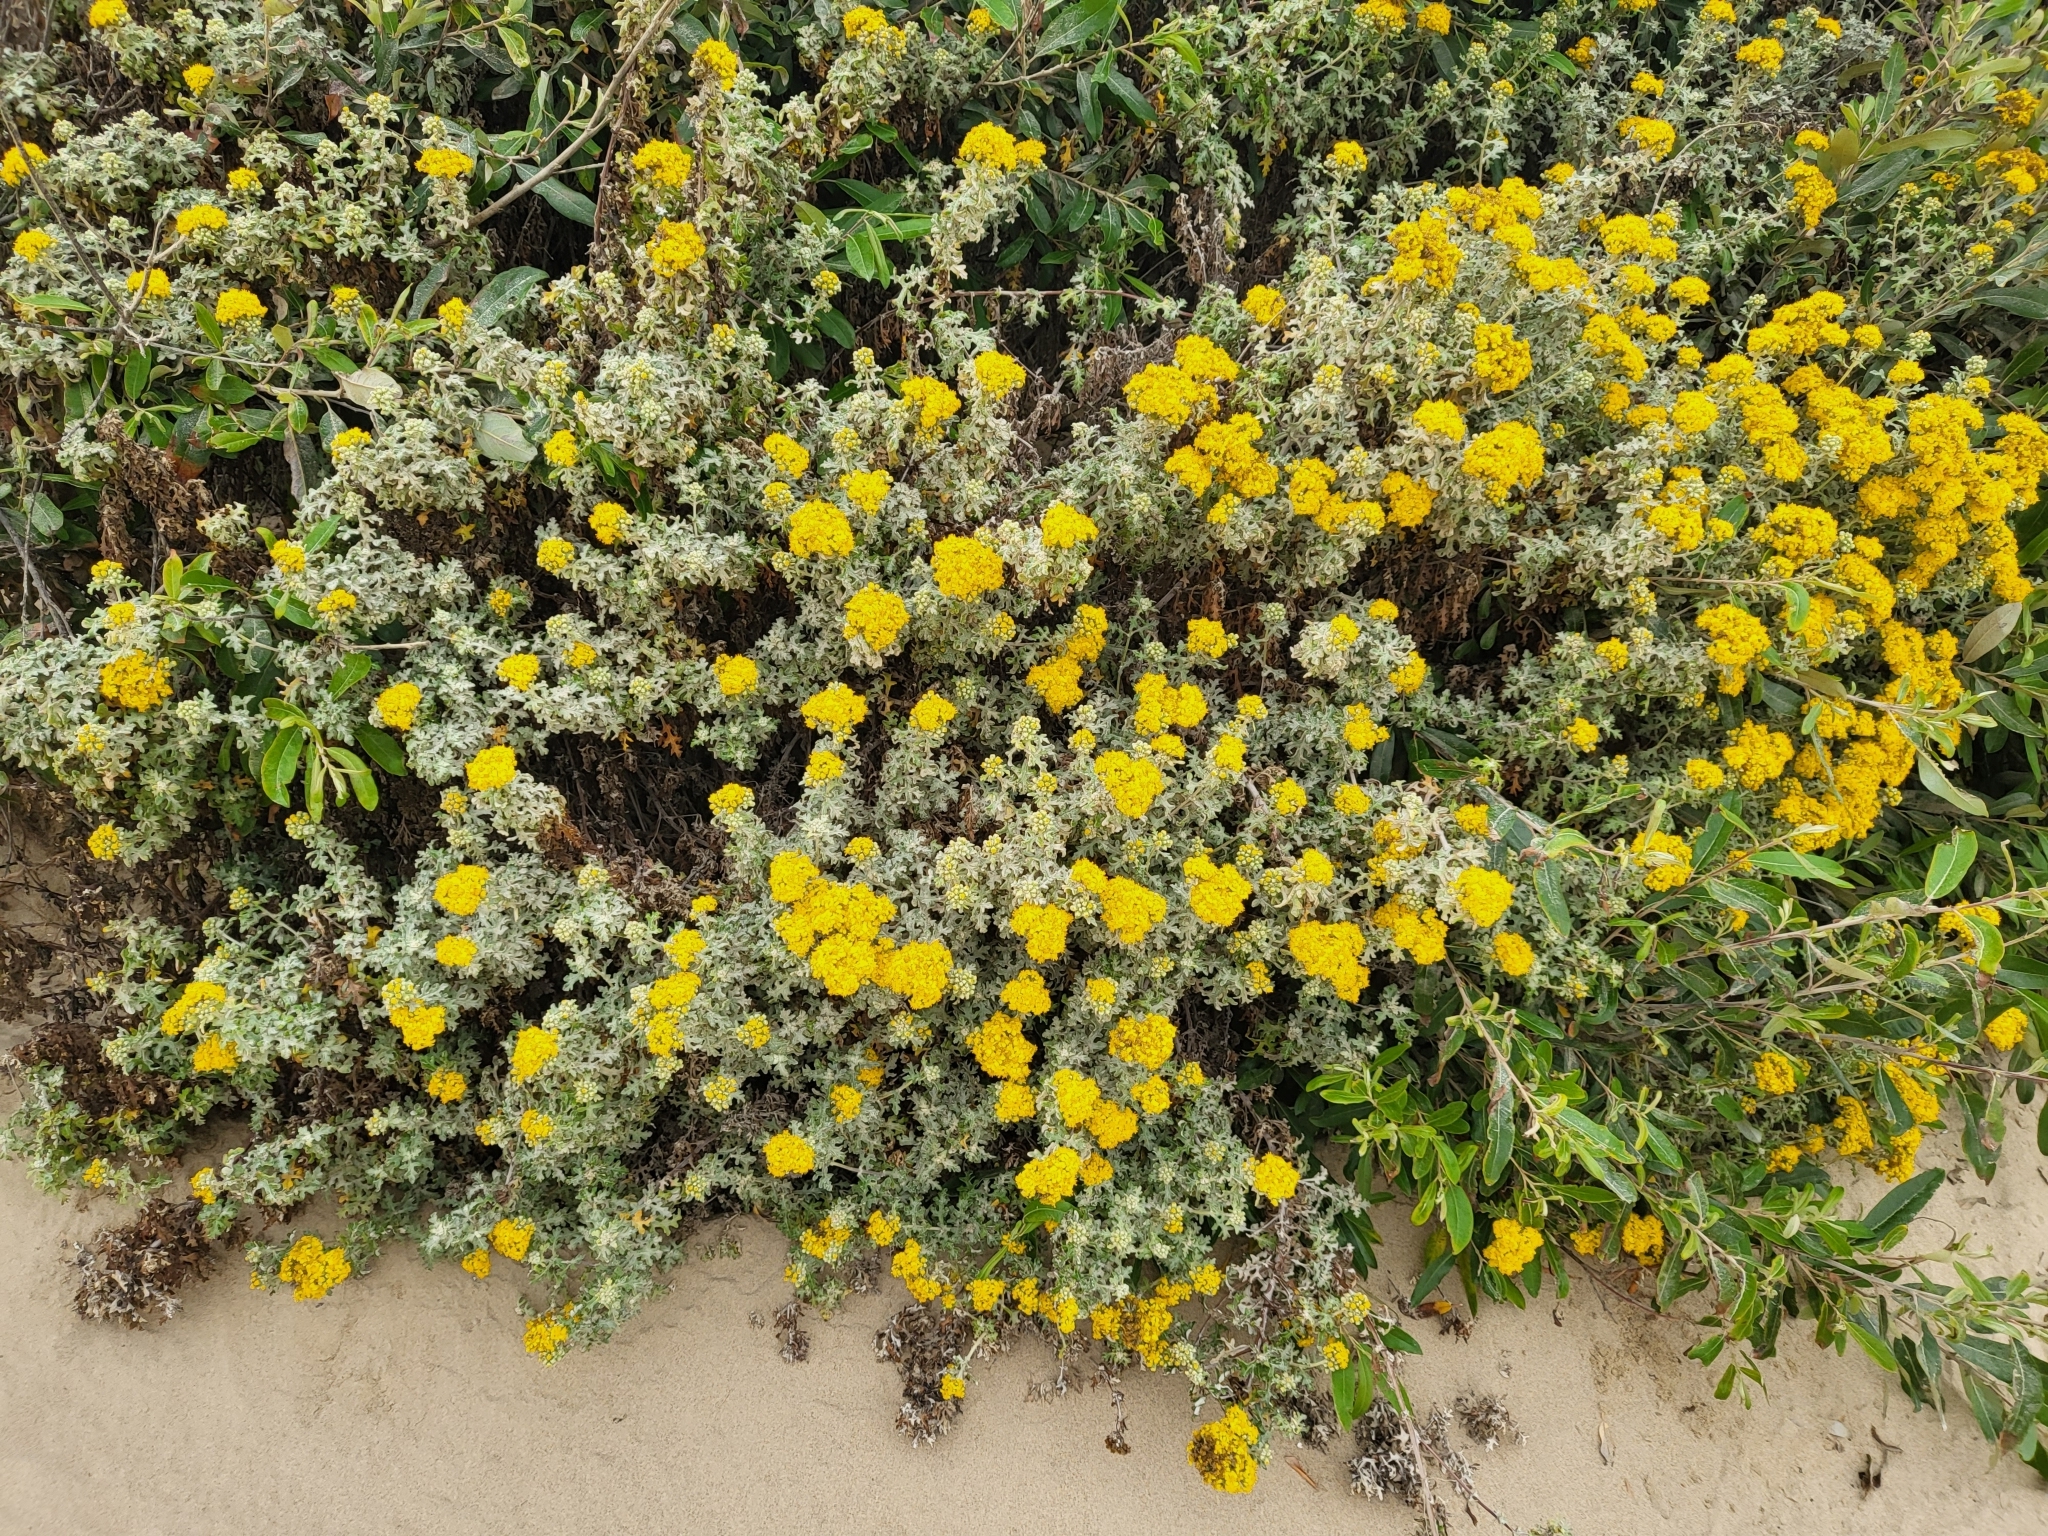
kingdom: Plantae
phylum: Tracheophyta
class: Magnoliopsida
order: Asterales
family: Asteraceae
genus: Eriophyllum
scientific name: Eriophyllum staechadifolium
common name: Lizardtail
